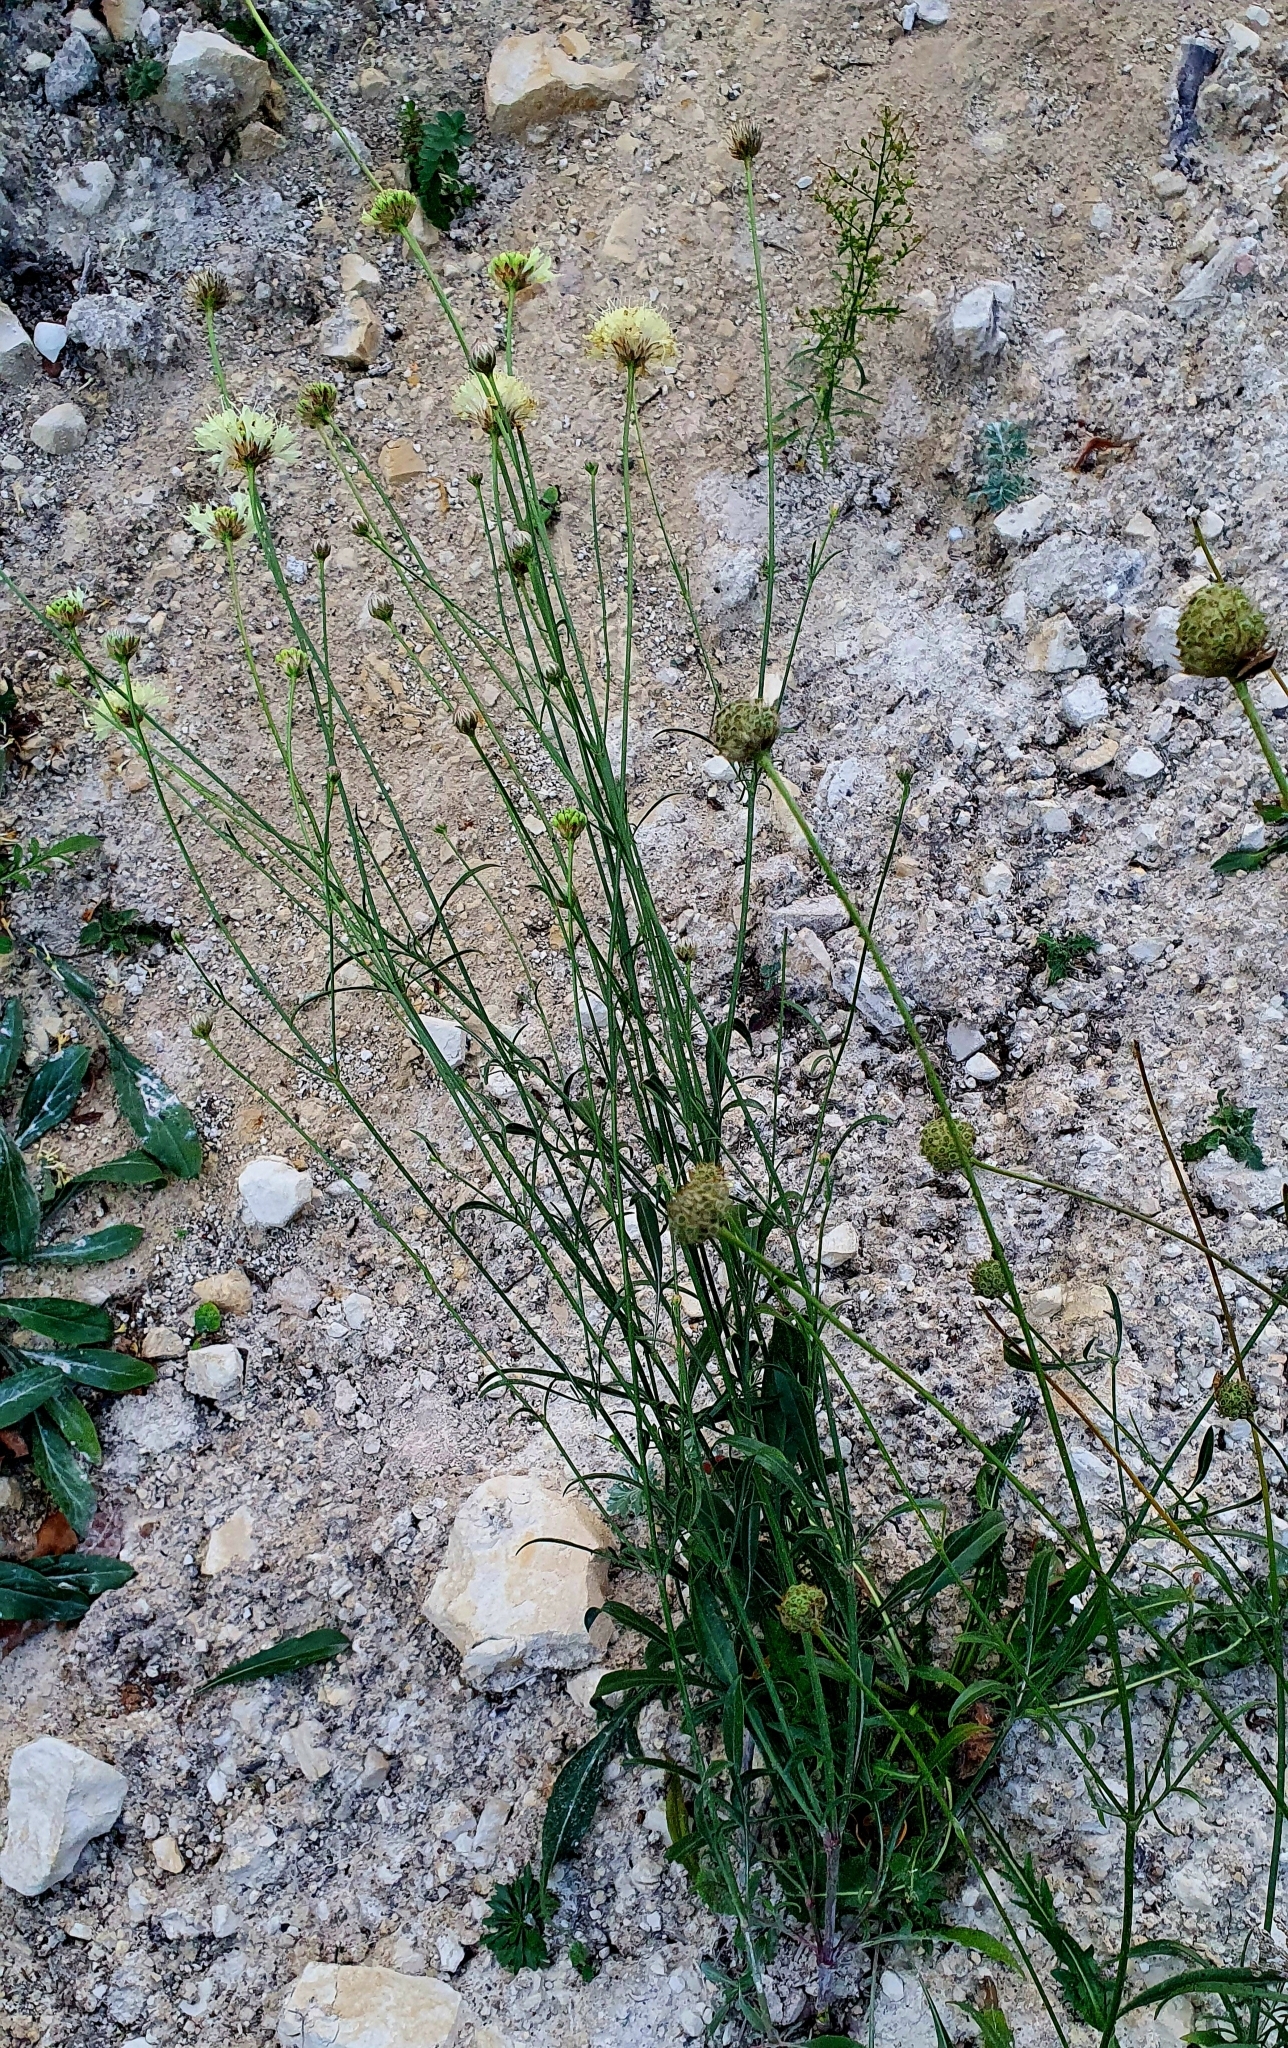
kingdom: Plantae
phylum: Tracheophyta
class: Magnoliopsida
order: Dipsacales
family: Caprifoliaceae
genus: Cephalaria
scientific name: Cephalaria uralensis
